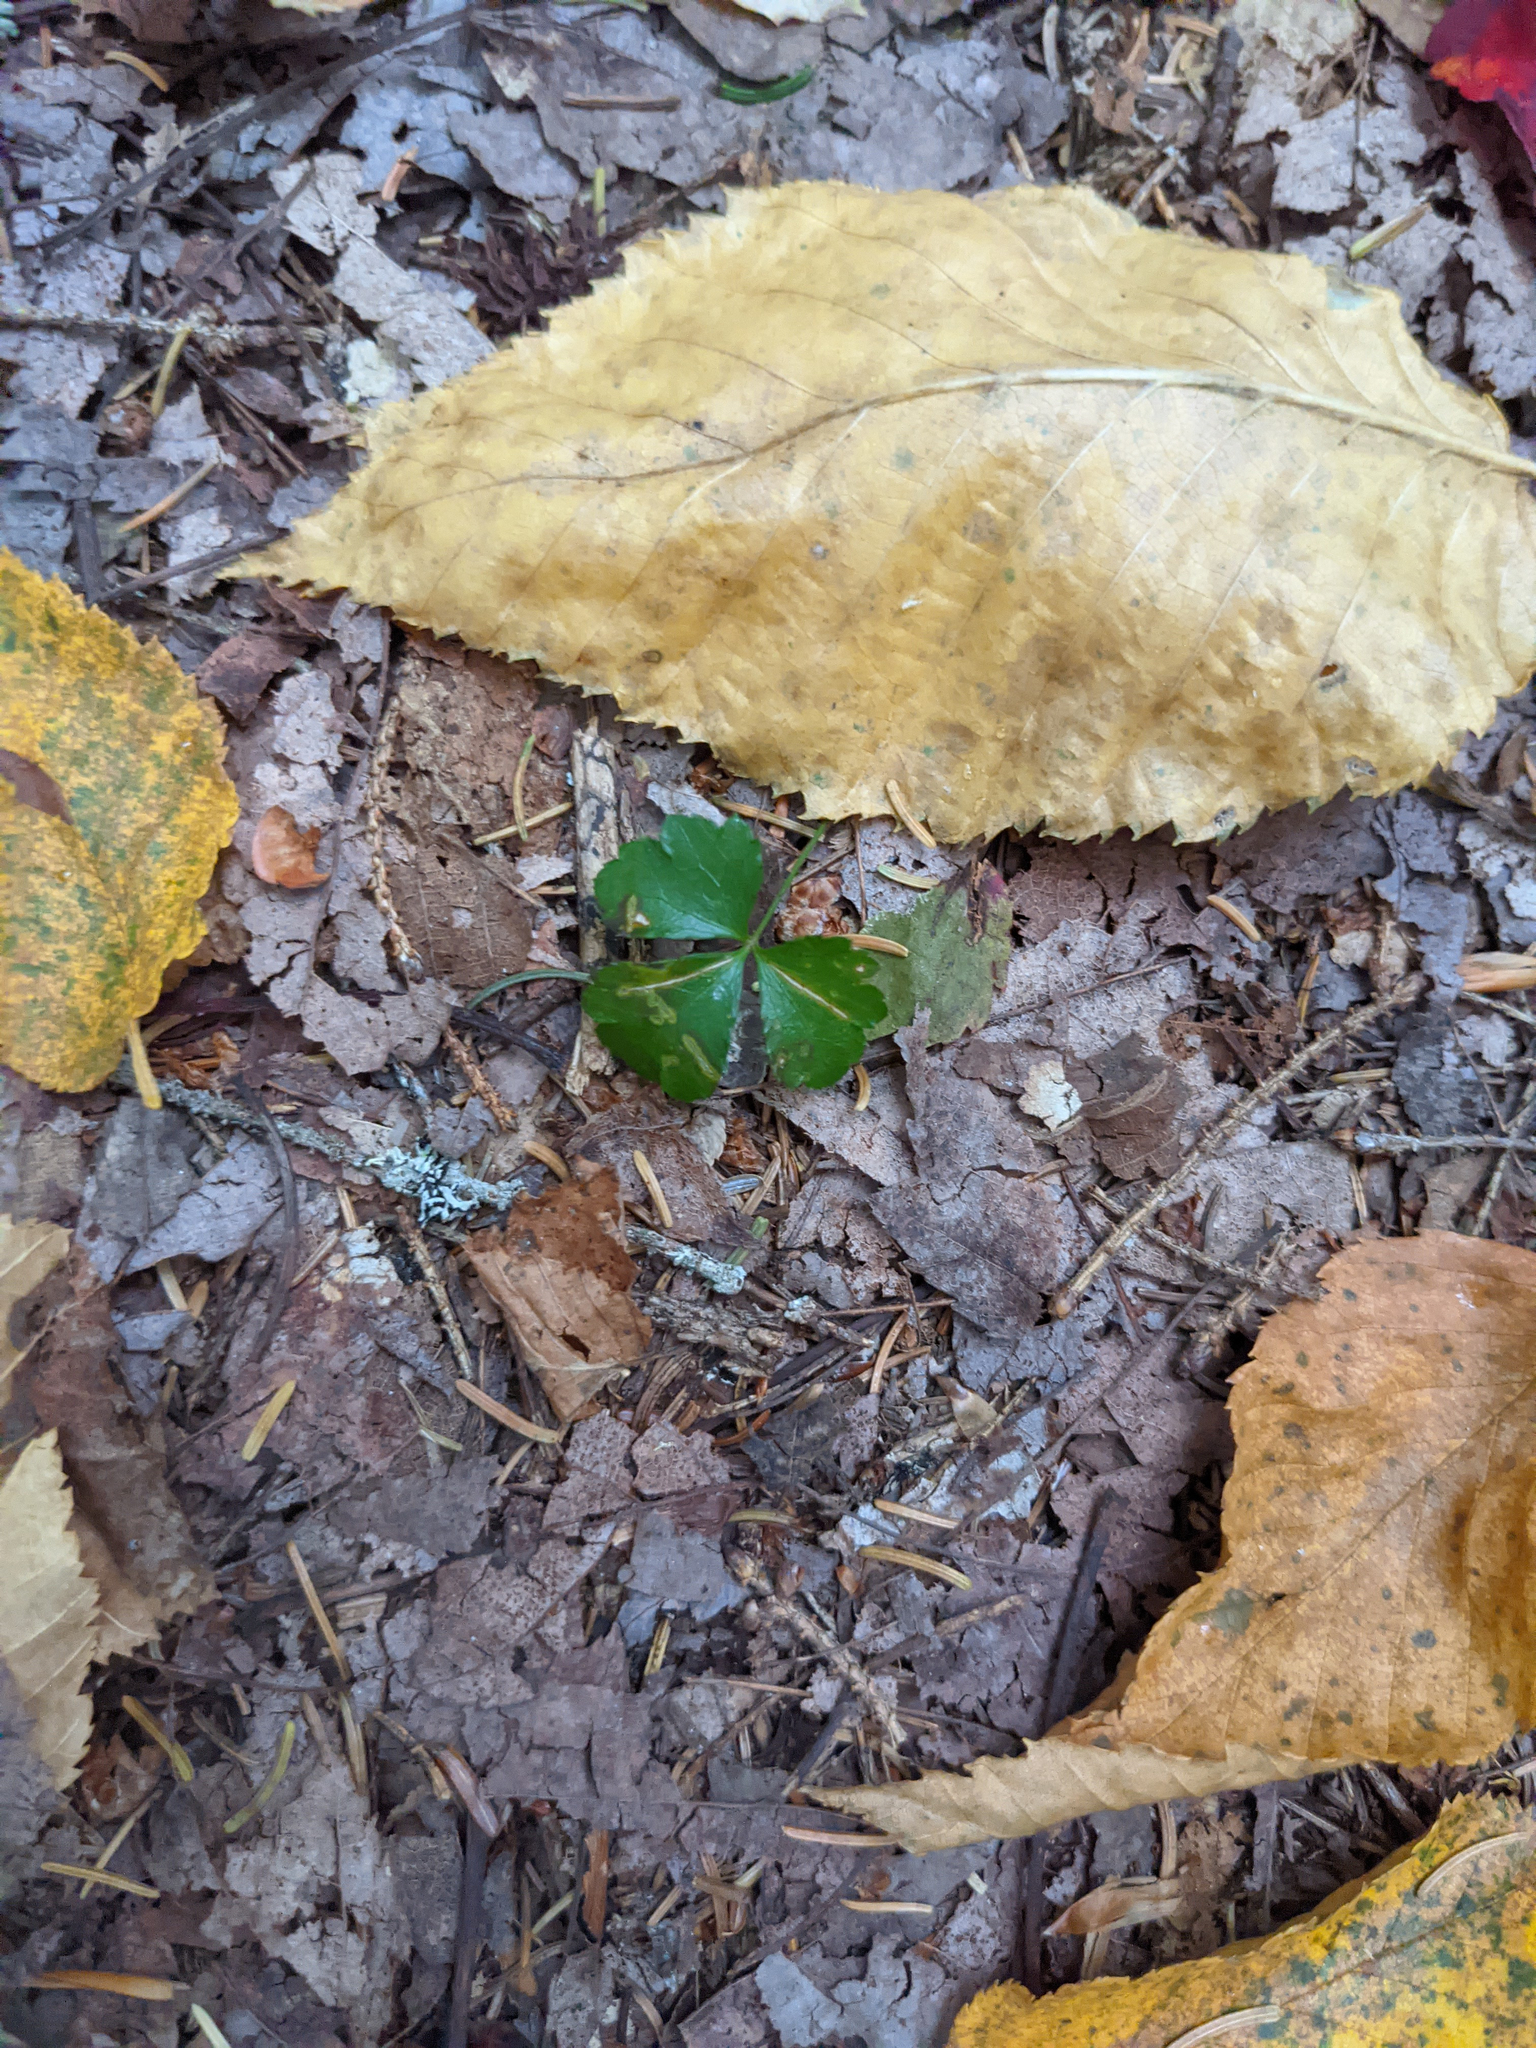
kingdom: Plantae
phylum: Tracheophyta
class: Magnoliopsida
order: Ranunculales
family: Ranunculaceae
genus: Coptis
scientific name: Coptis trifolia
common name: Canker-root
